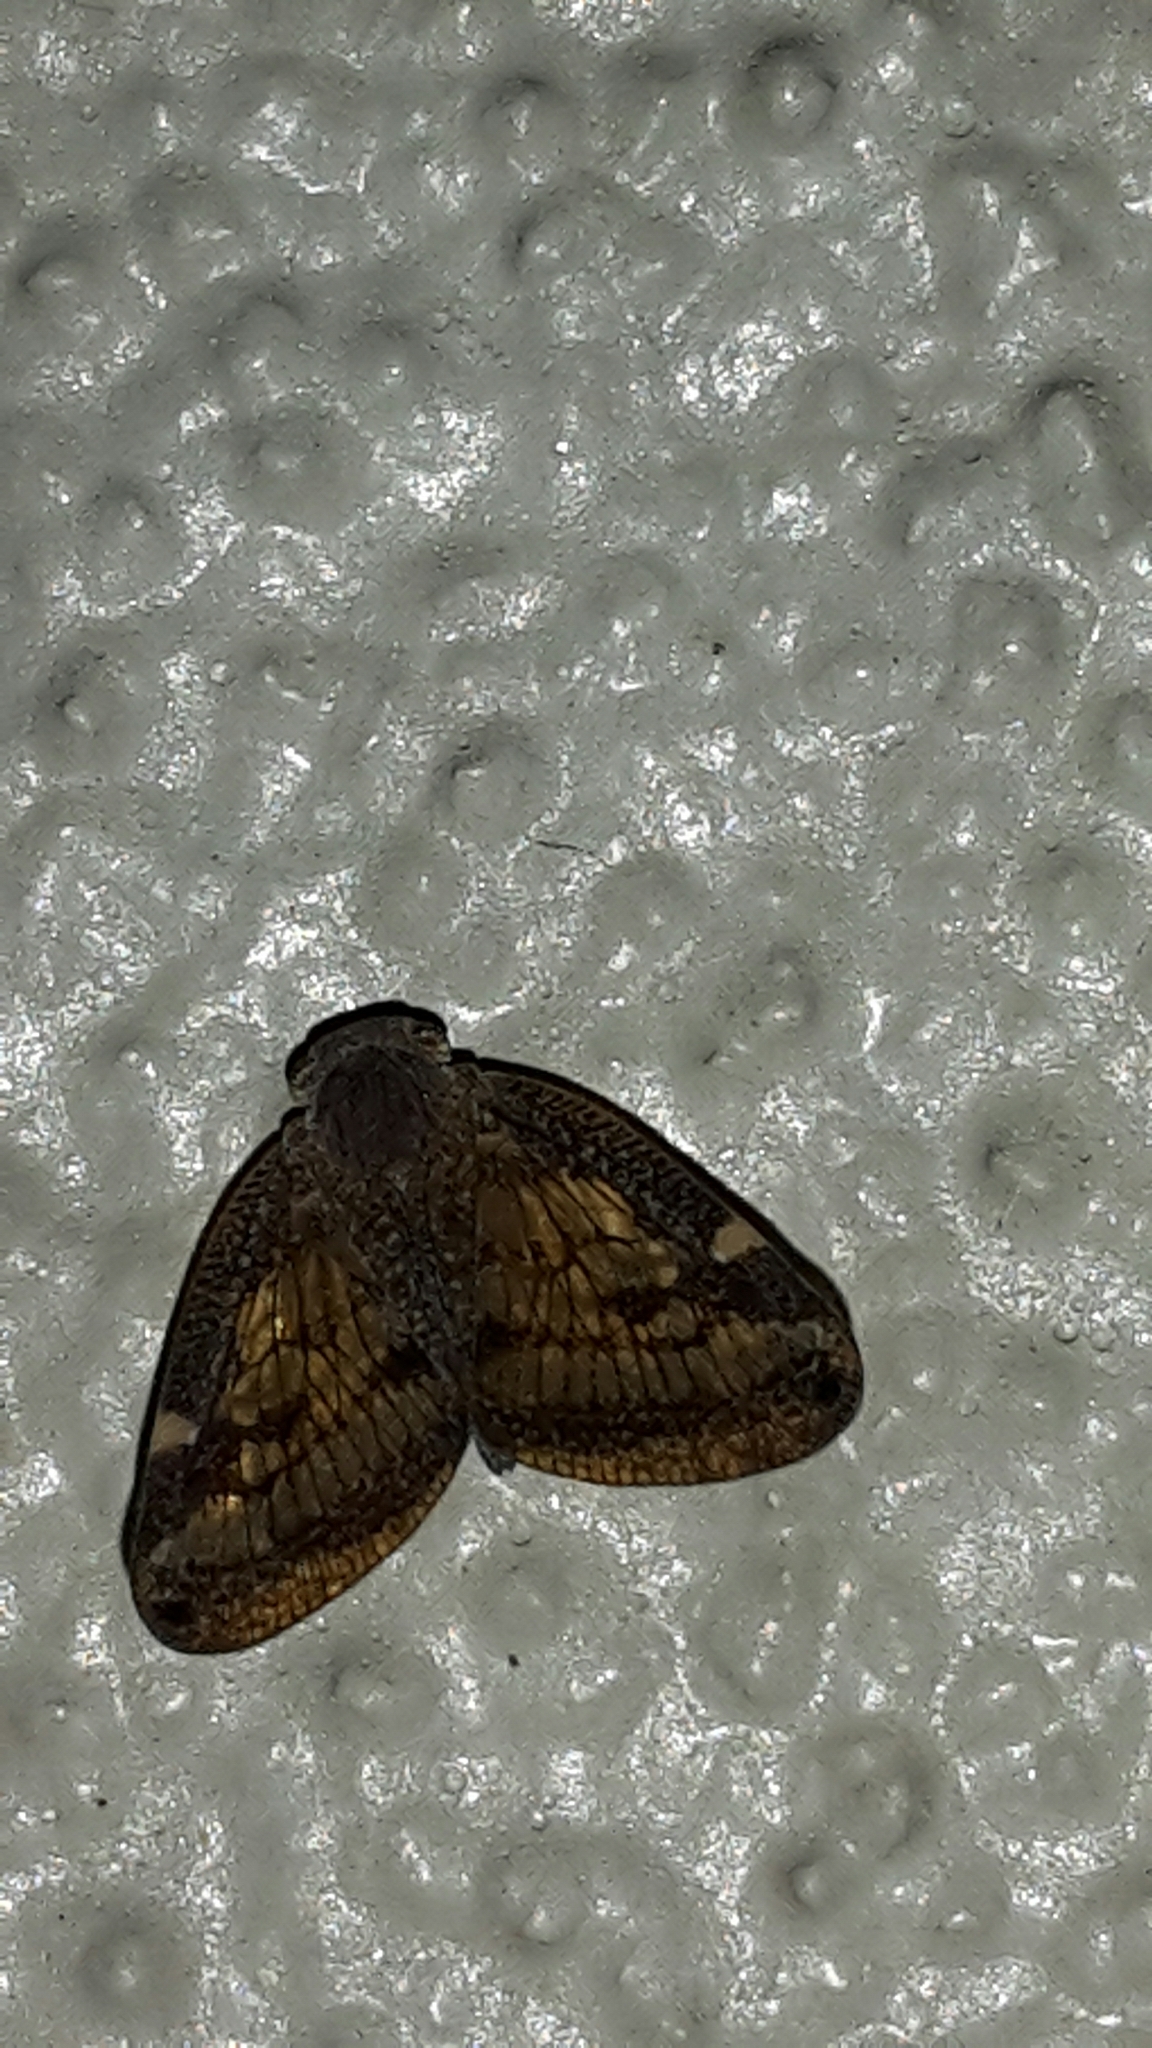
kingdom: Animalia
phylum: Arthropoda
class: Insecta
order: Hemiptera
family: Ricaniidae
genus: Scolypopa
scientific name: Scolypopa australis
